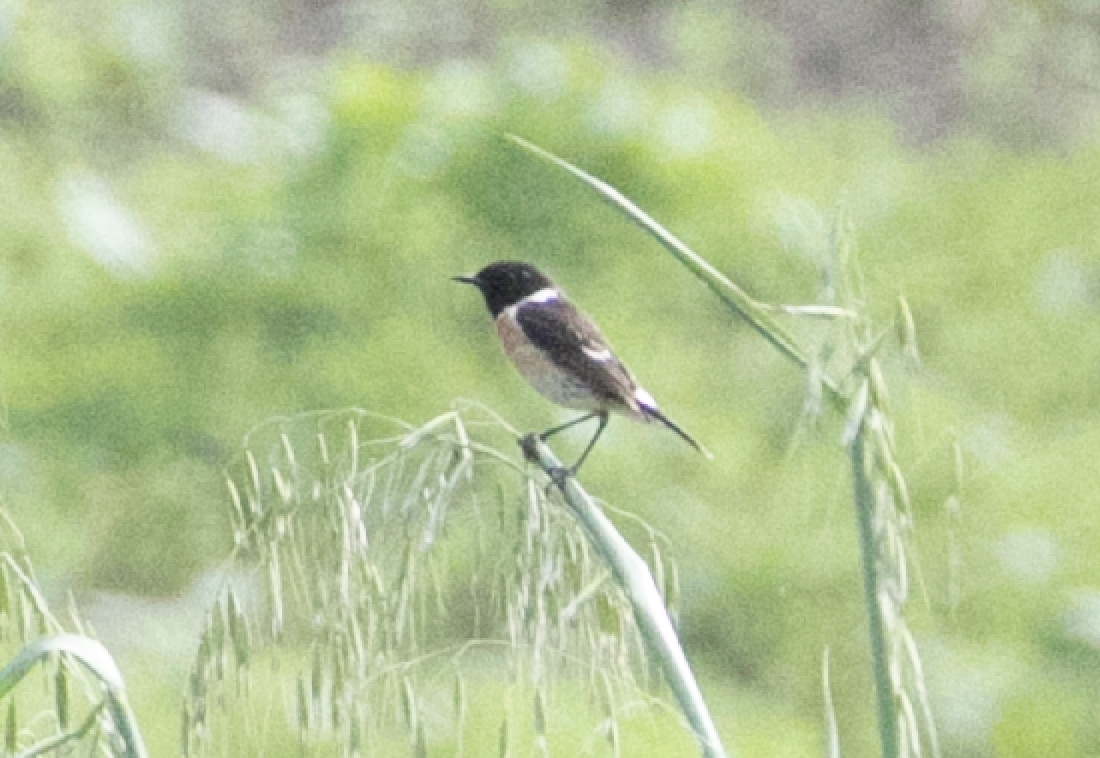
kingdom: Animalia
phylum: Chordata
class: Aves
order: Passeriformes
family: Muscicapidae
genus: Saxicola
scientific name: Saxicola rubicola
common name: European stonechat
